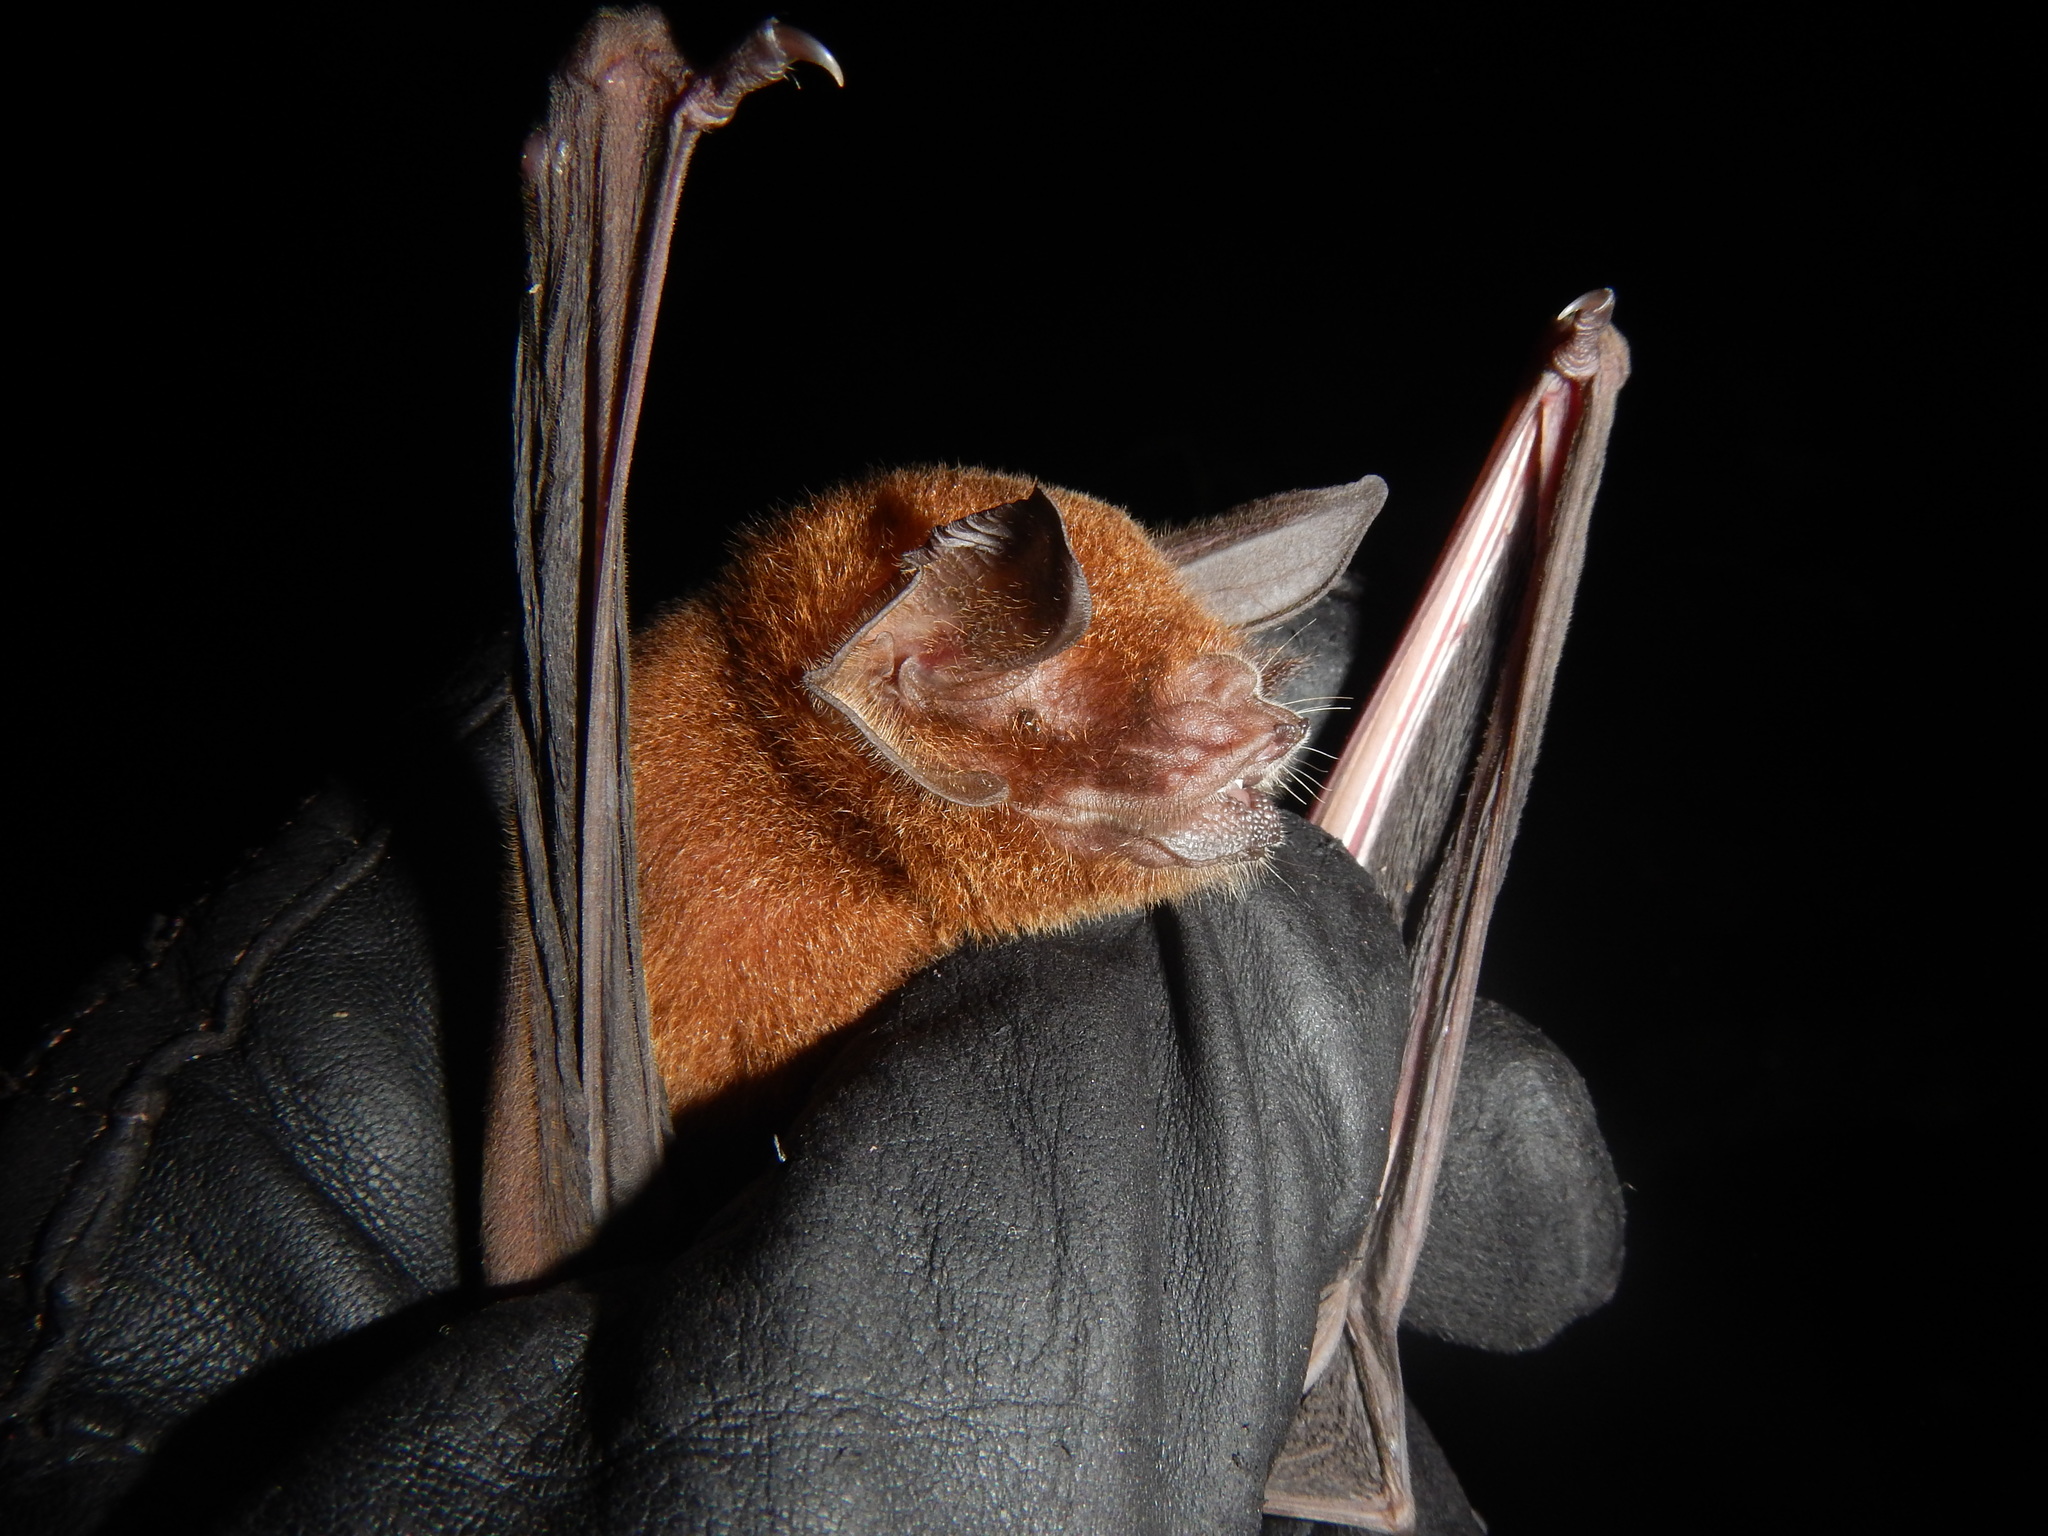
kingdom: Animalia
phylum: Chordata
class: Mammalia
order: Chiroptera
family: Mormoopidae
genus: Pteronotus
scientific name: Pteronotus rubiginosus
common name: Womurs common mustached bat
